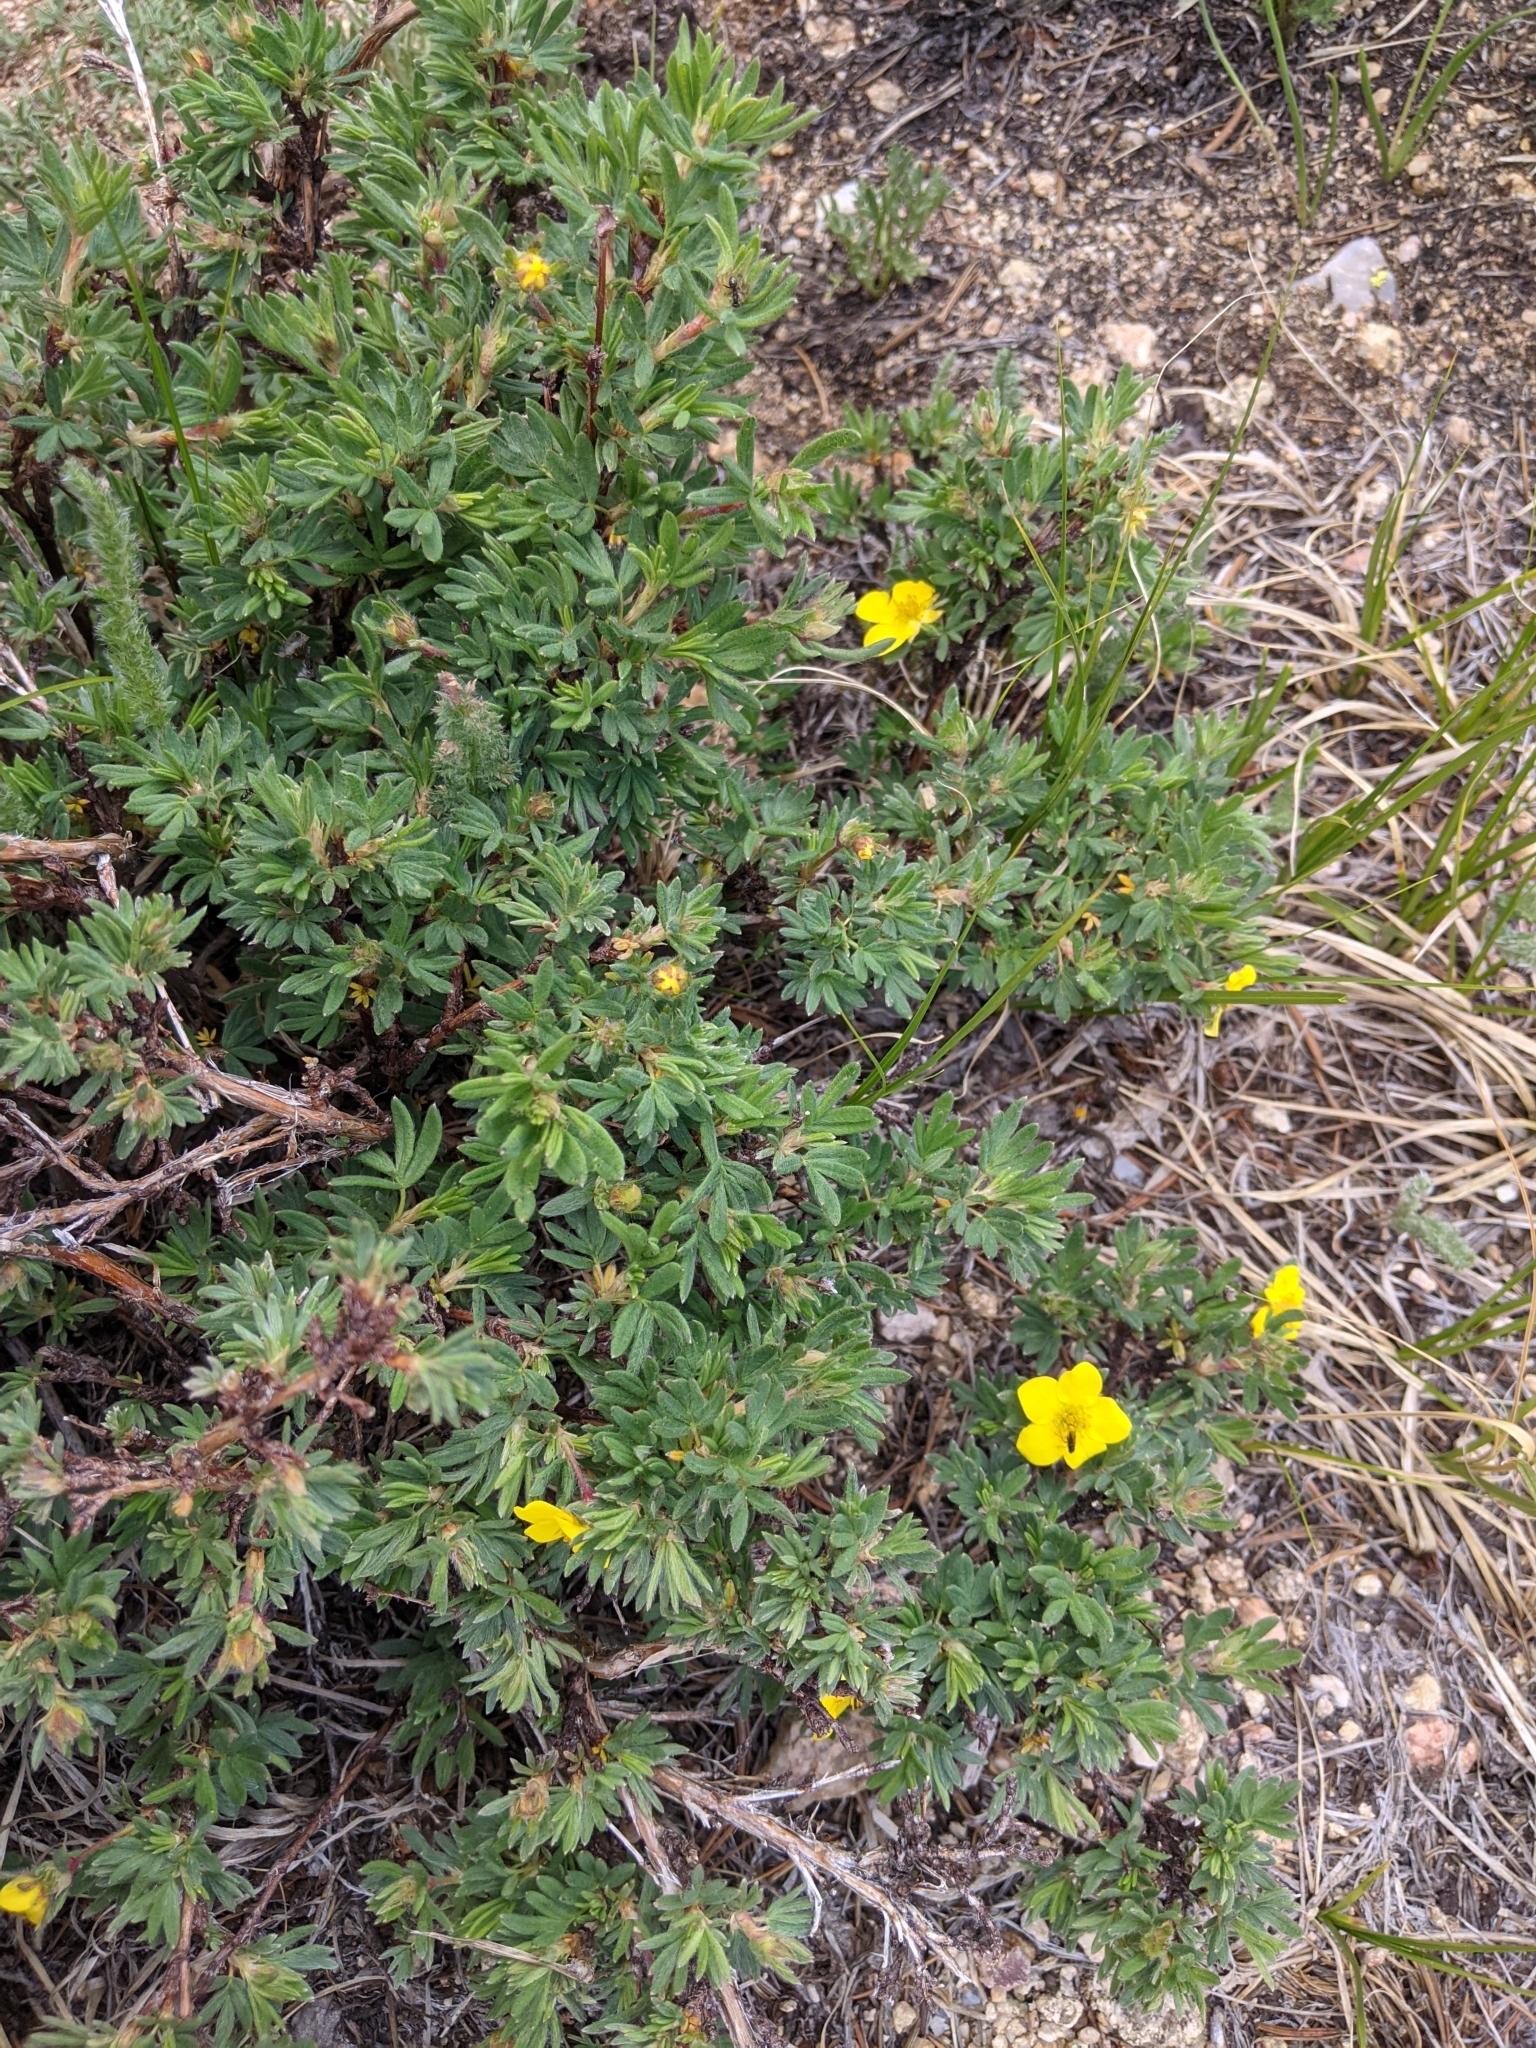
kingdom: Plantae
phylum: Tracheophyta
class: Magnoliopsida
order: Rosales
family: Rosaceae
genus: Dasiphora
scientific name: Dasiphora fruticosa
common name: Shrubby cinquefoil
